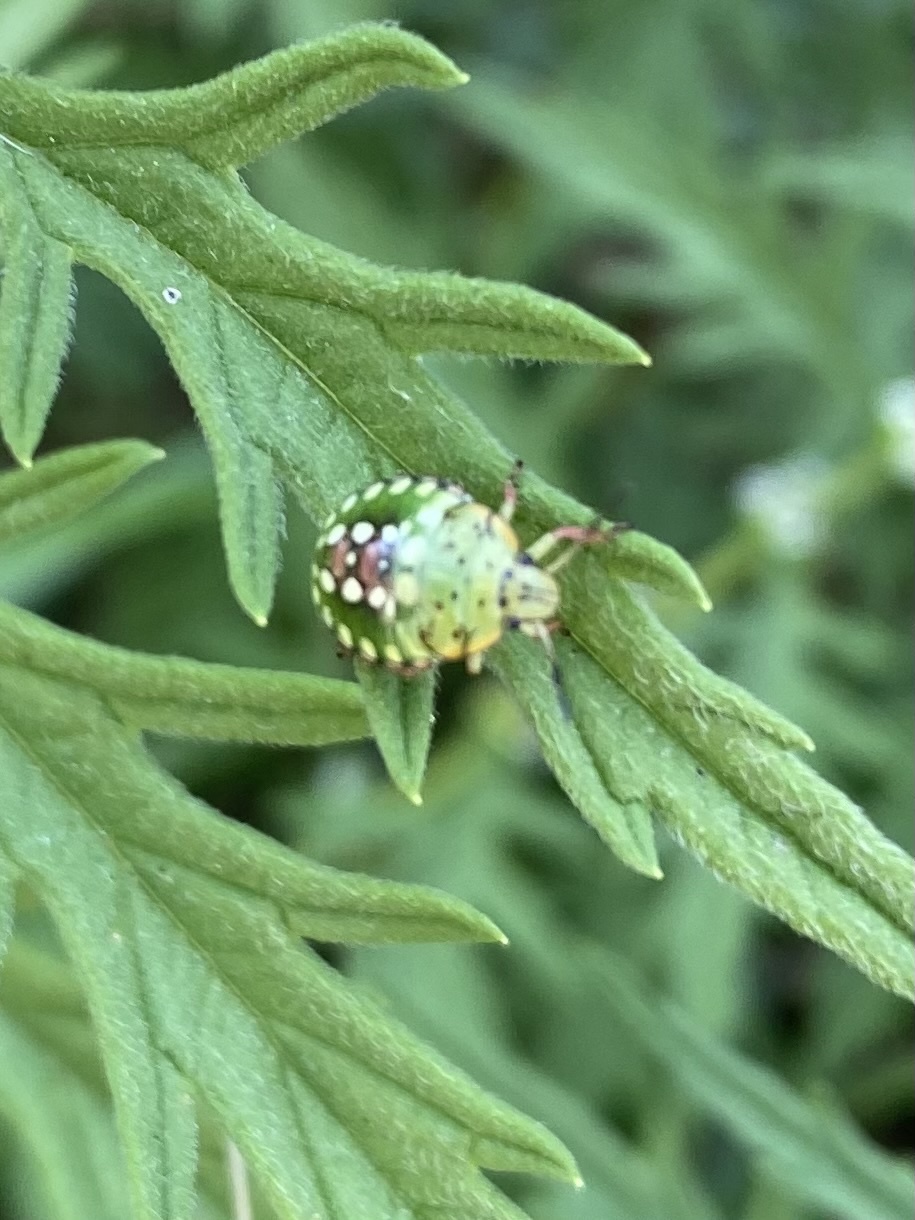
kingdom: Animalia
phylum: Arthropoda
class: Insecta
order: Hemiptera
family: Pentatomidae
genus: Nezara
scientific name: Nezara viridula
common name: Southern green stink bug
